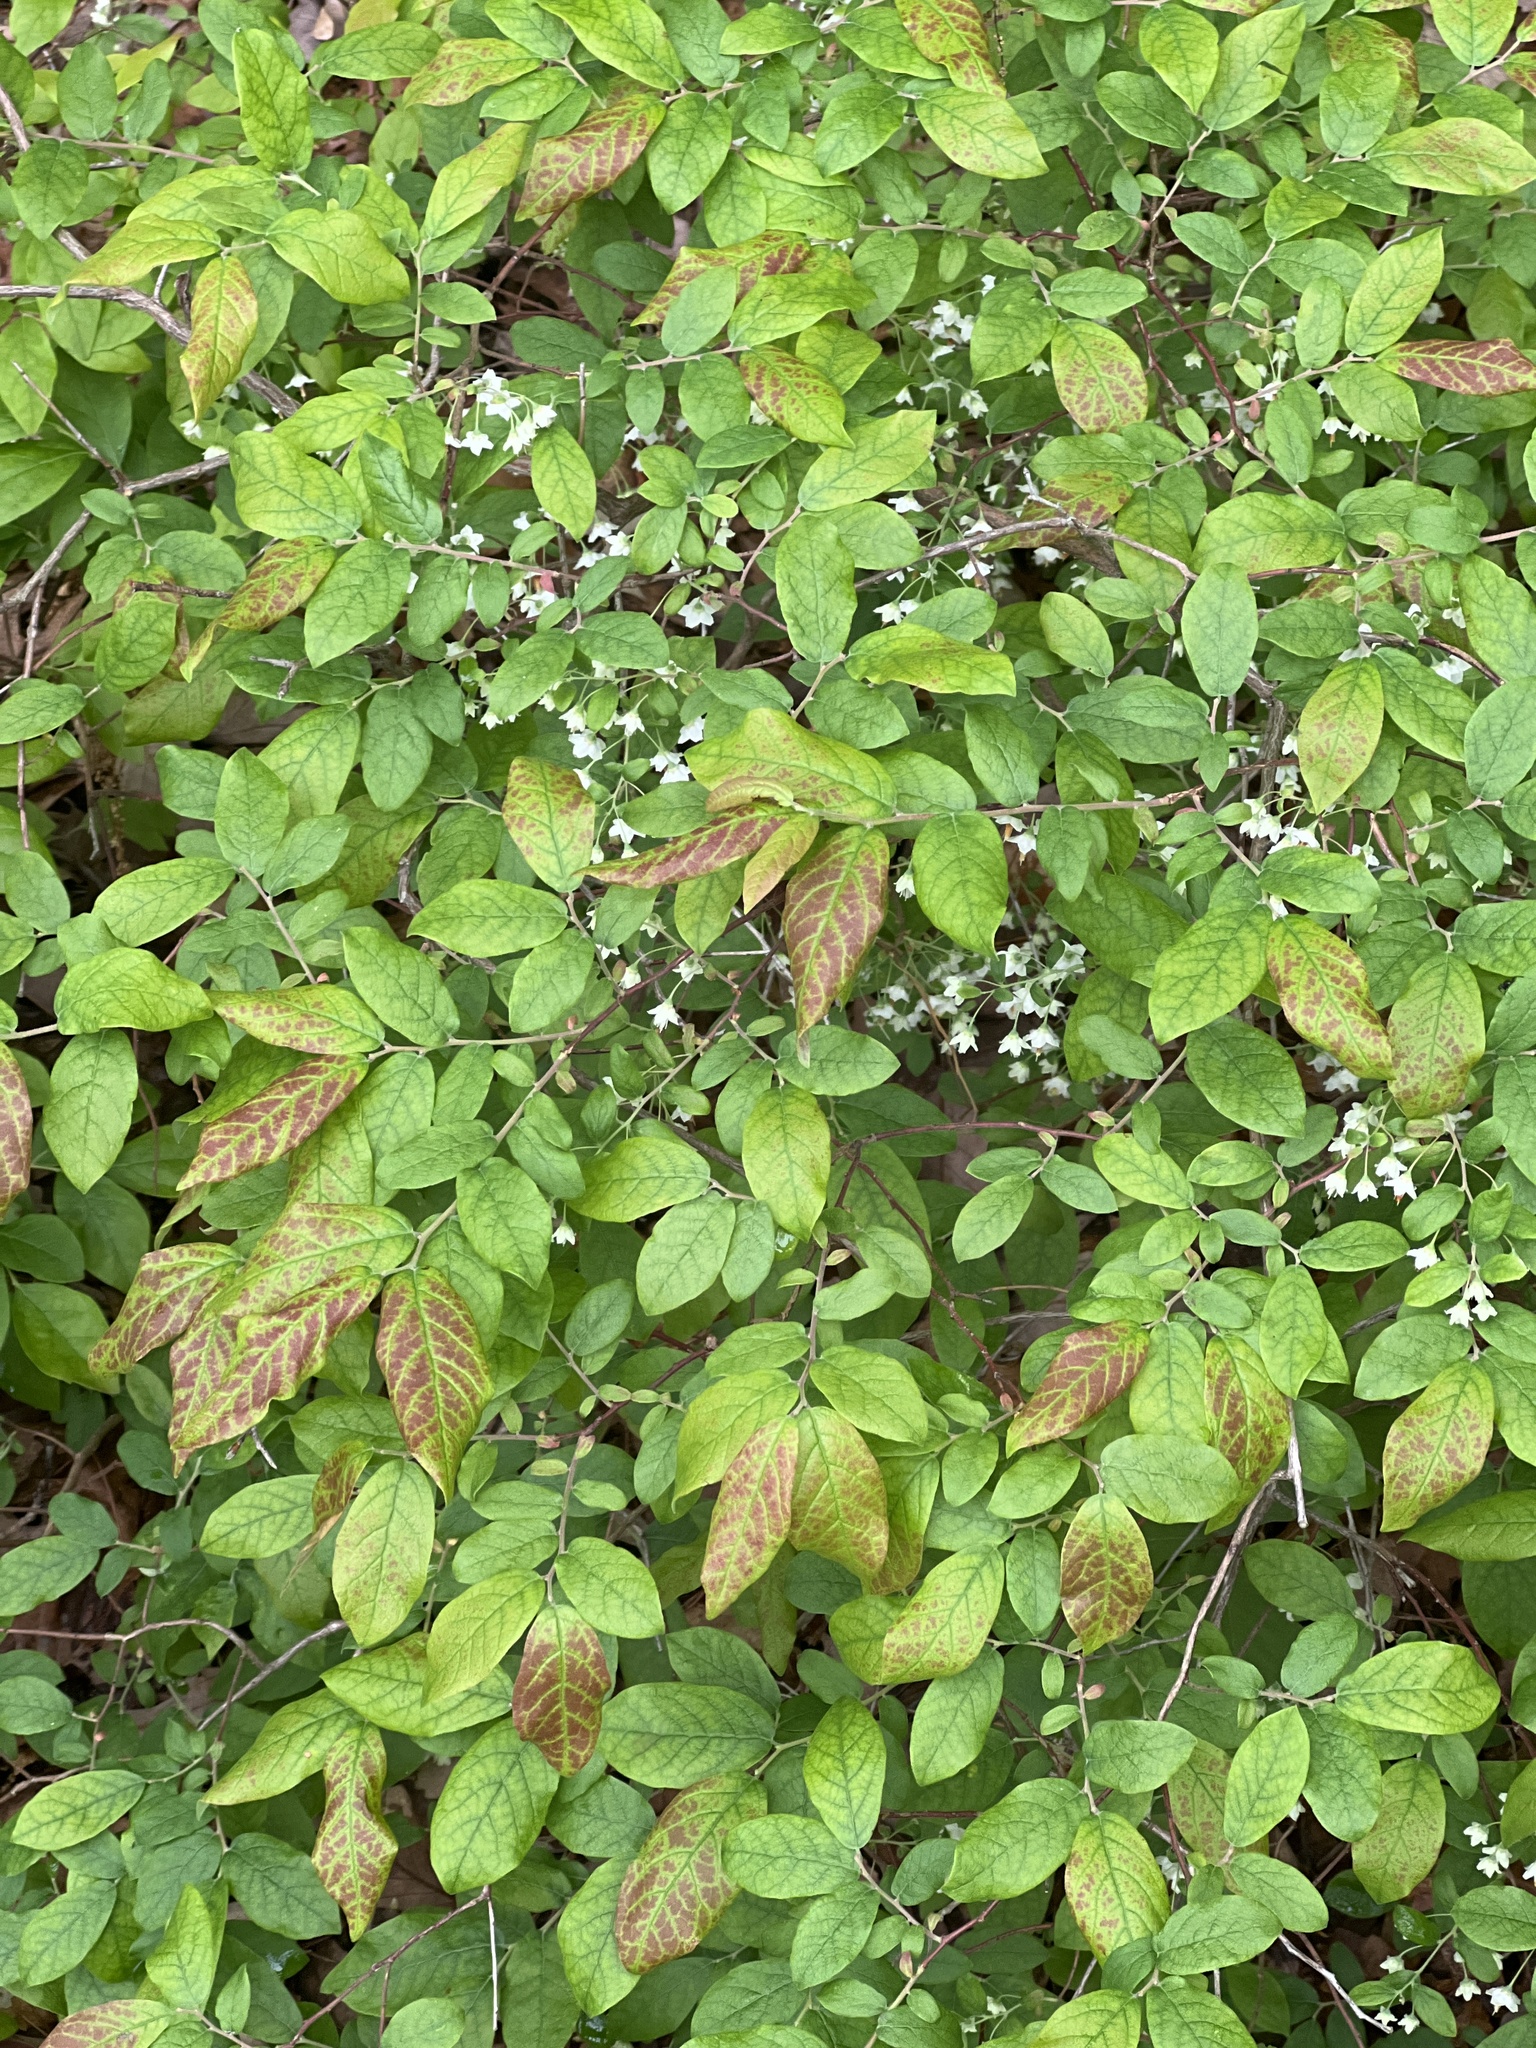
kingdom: Plantae
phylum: Tracheophyta
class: Magnoliopsida
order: Ericales
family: Ericaceae
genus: Vaccinium
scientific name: Vaccinium stamineum
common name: Deerberry
